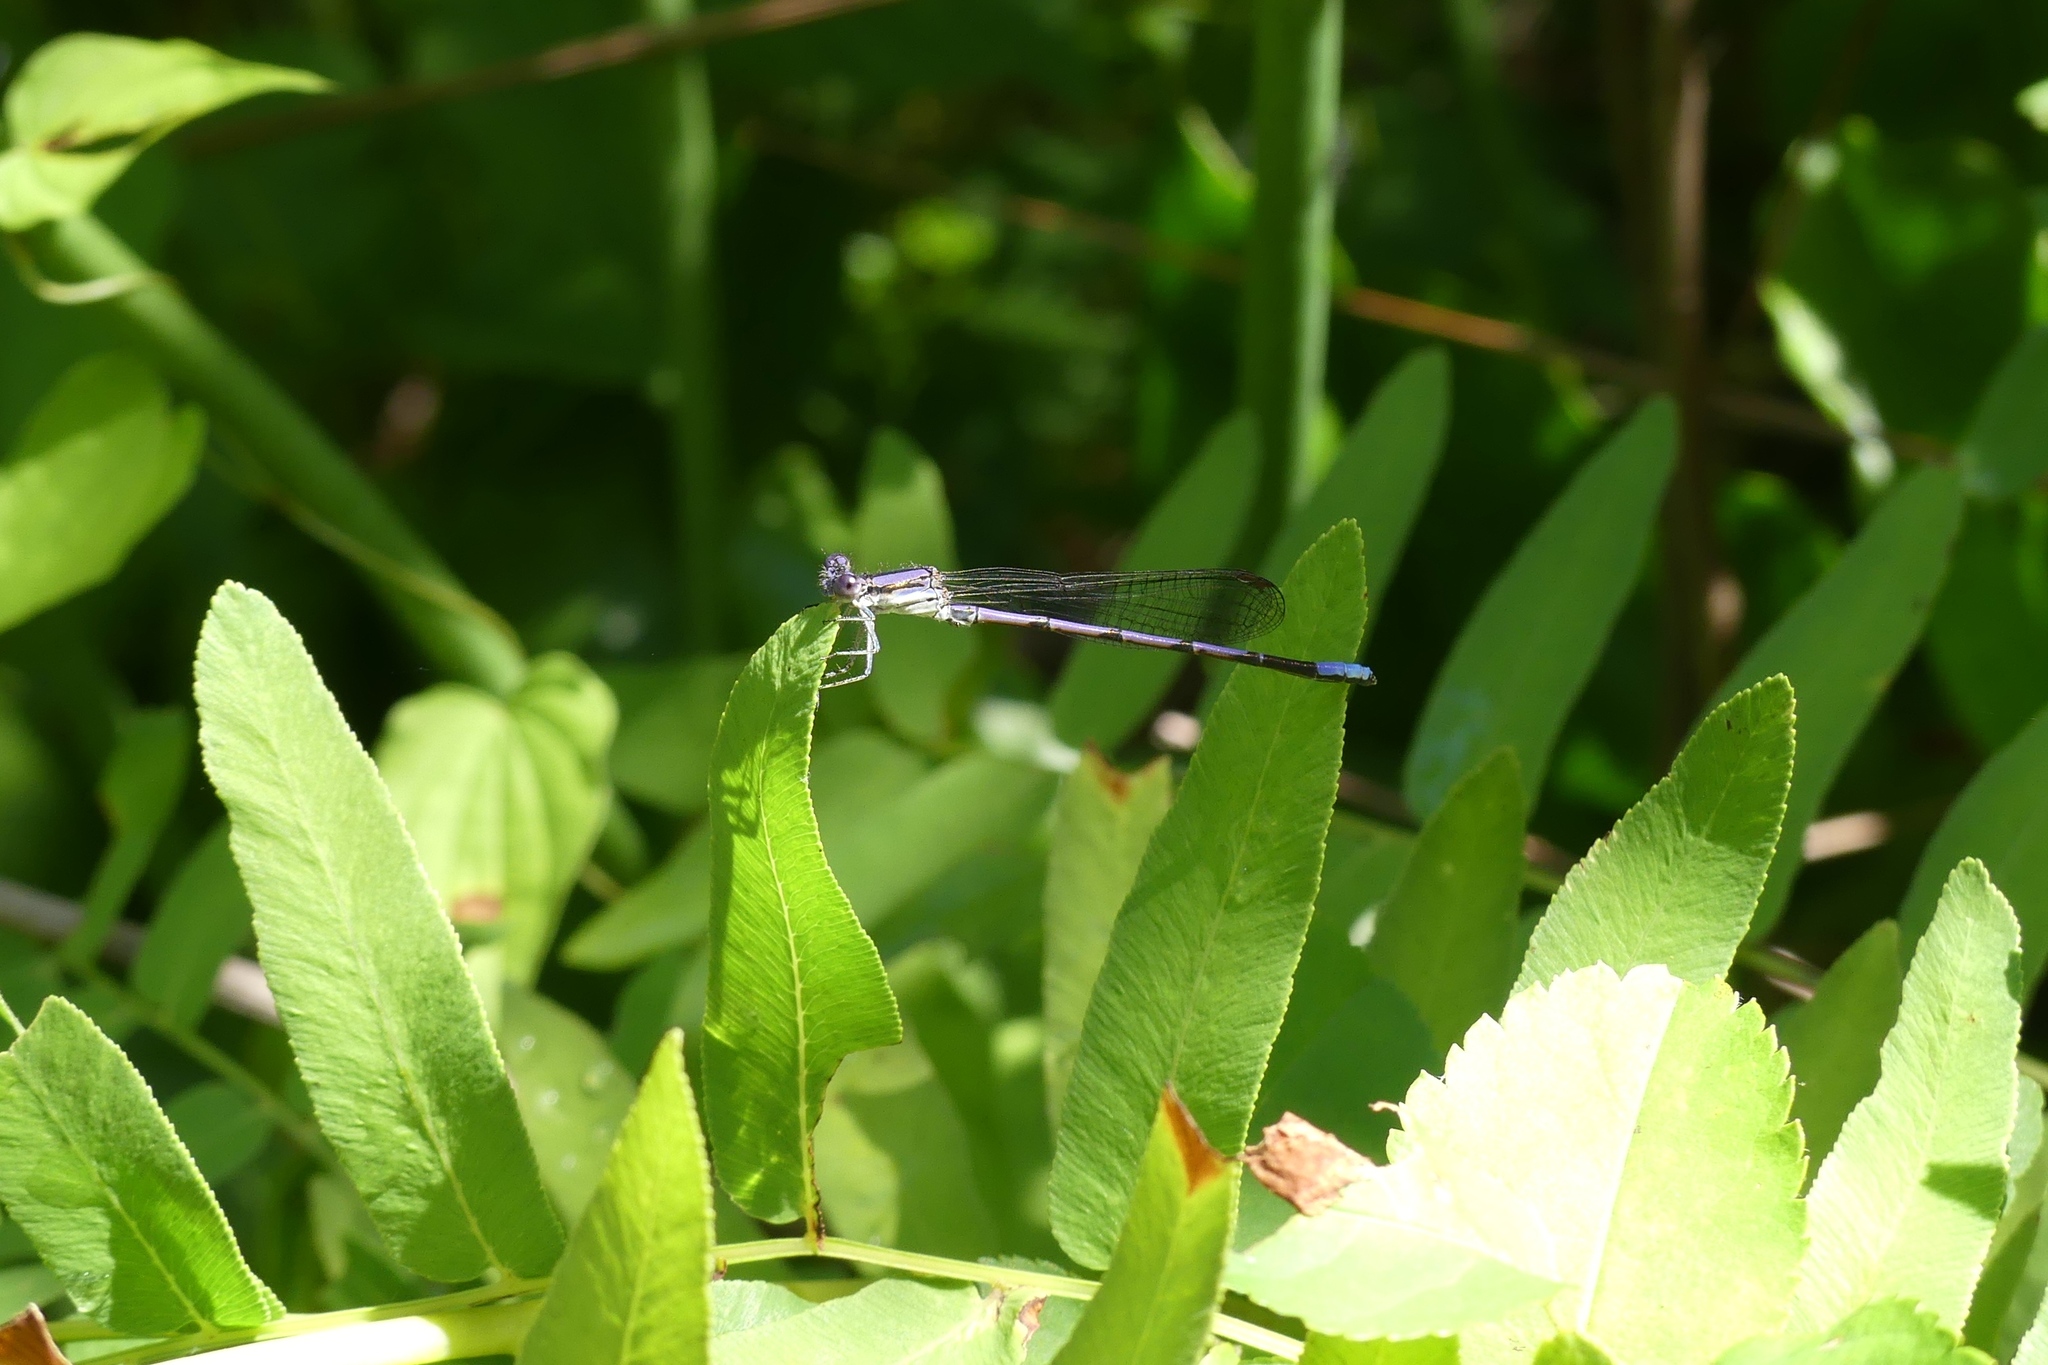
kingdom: Animalia
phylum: Arthropoda
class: Insecta
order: Odonata
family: Coenagrionidae
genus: Argia
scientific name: Argia fumipennis
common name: Variable dancer
